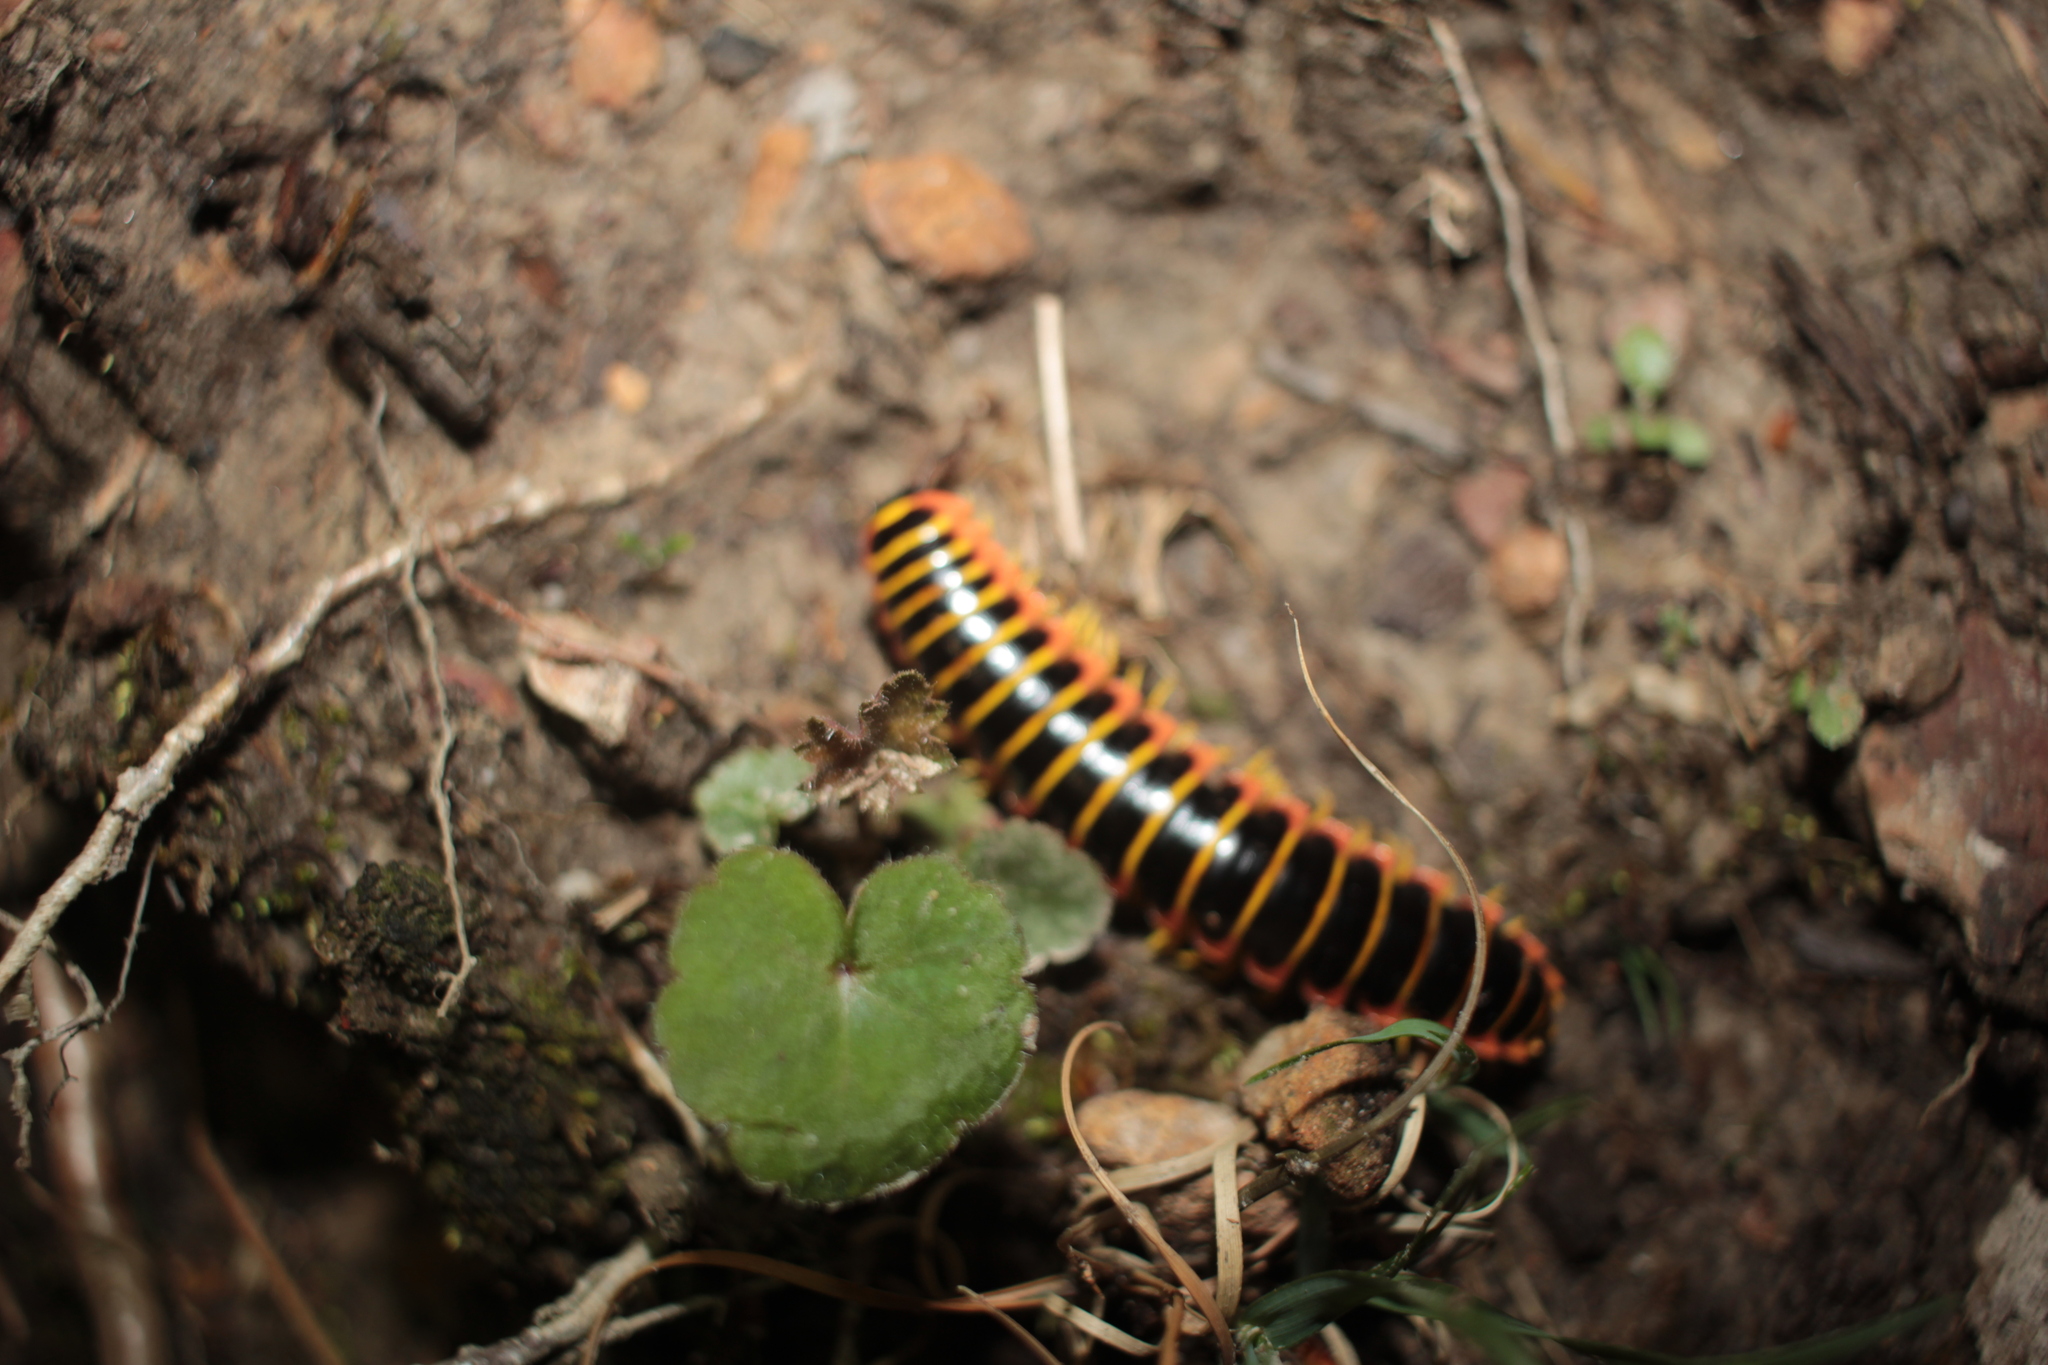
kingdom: Animalia
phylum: Arthropoda
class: Diplopoda
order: Polydesmida
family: Xystodesmidae
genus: Apheloria
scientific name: Apheloria virginiensis
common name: Black-and-gold flat millipede
